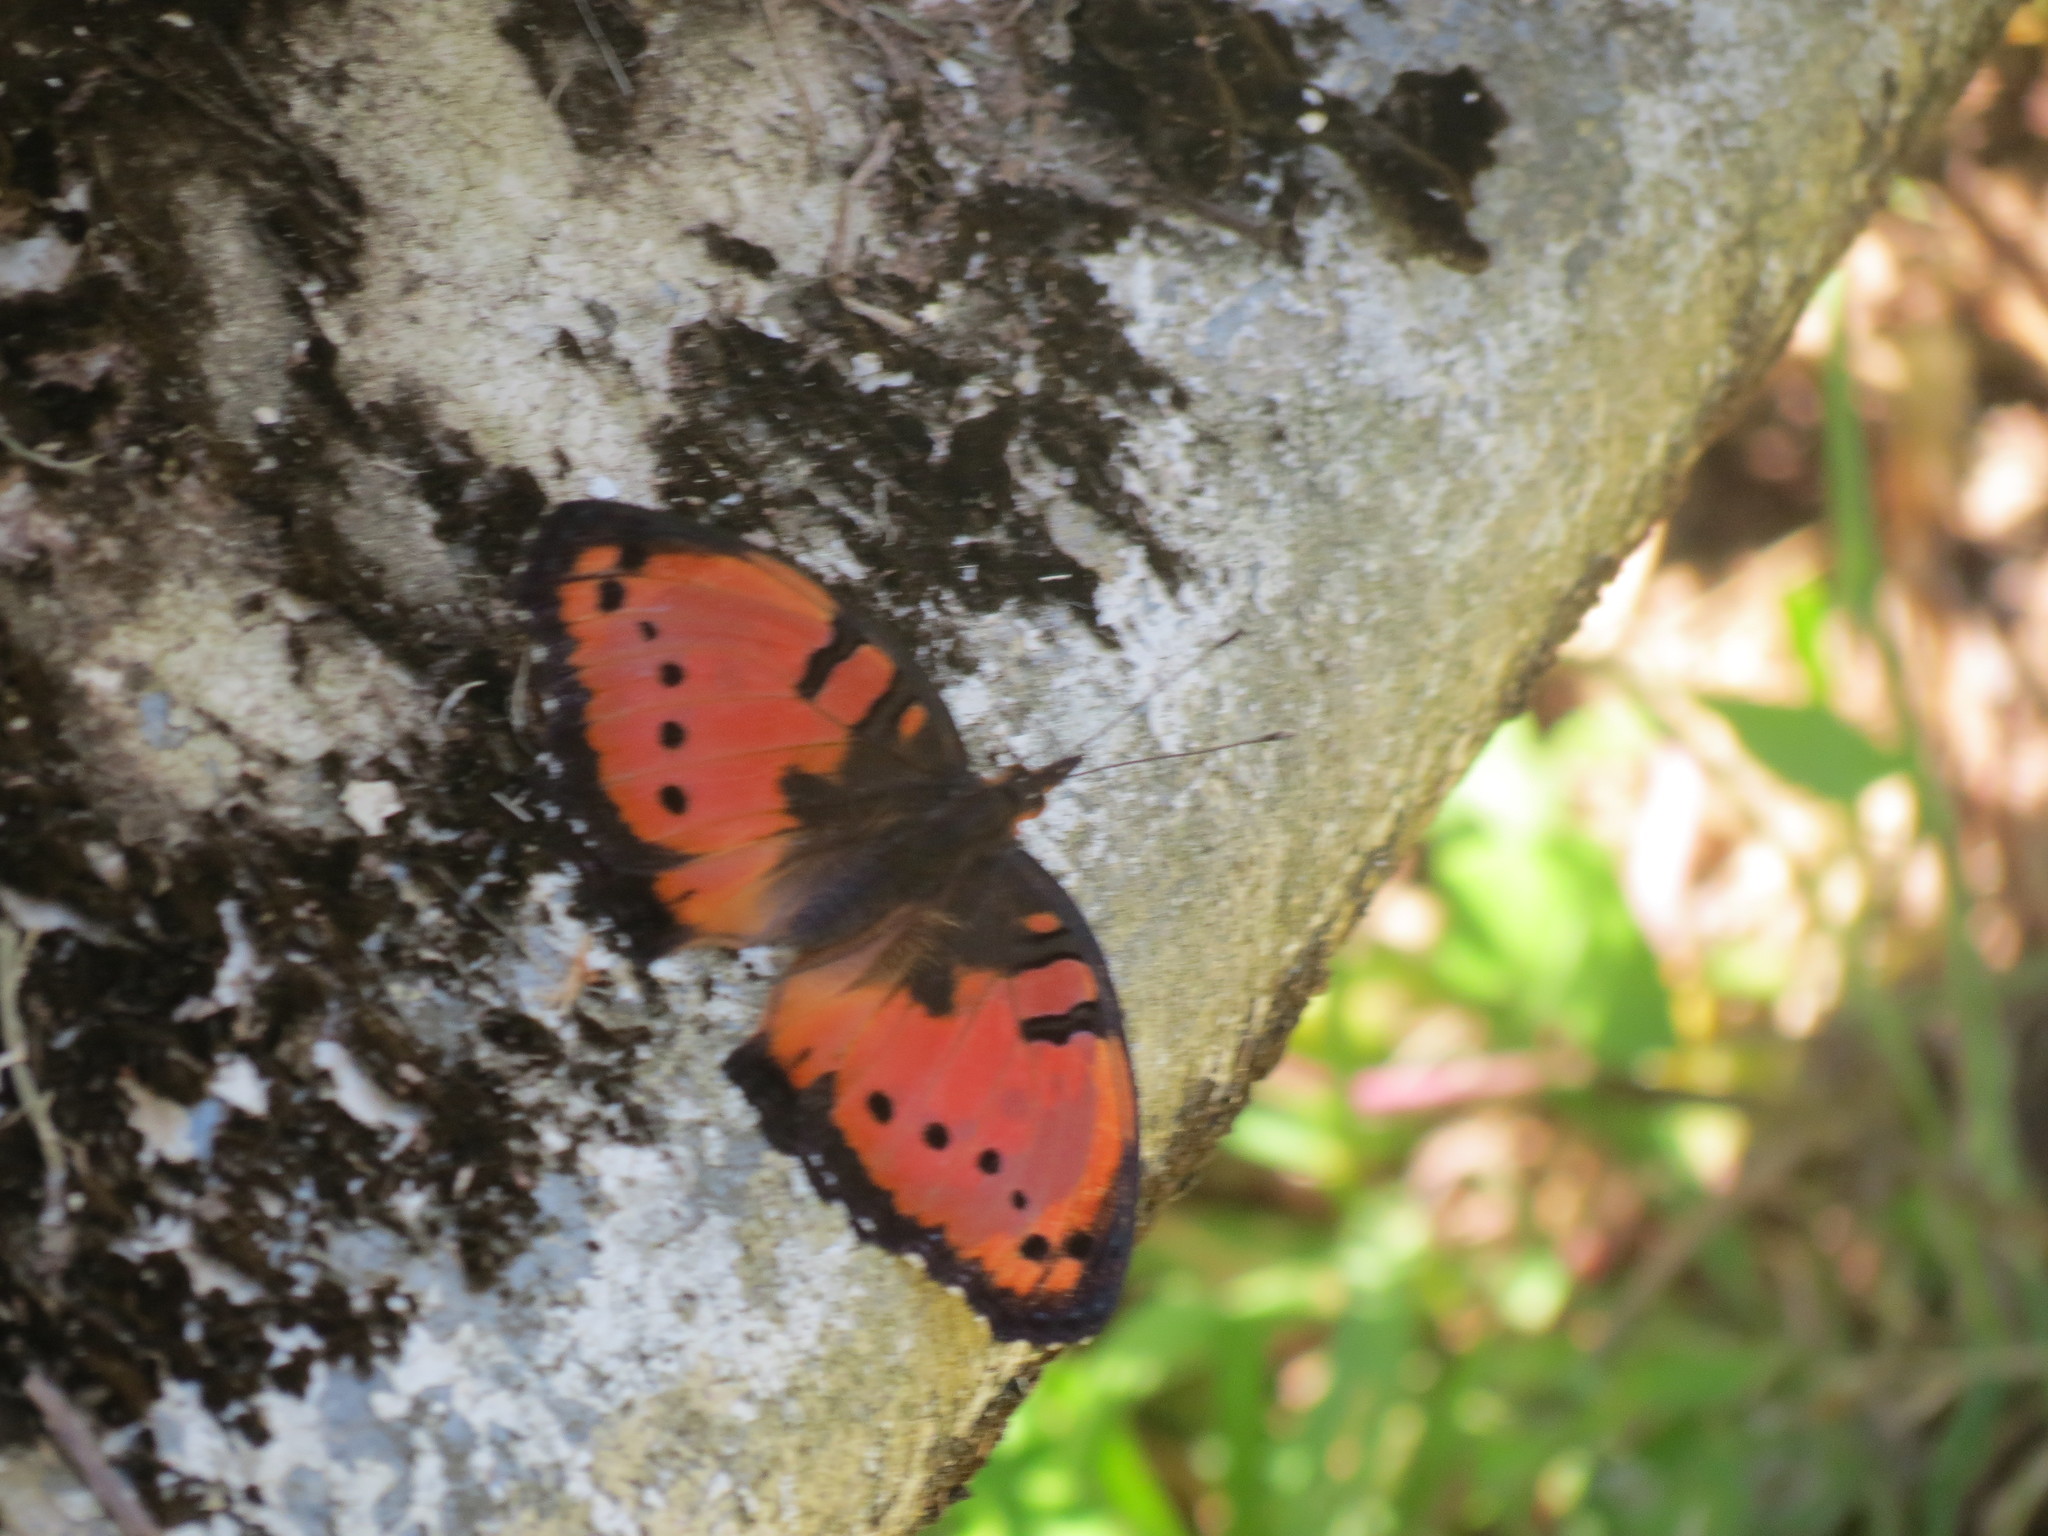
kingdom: Animalia
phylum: Arthropoda
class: Insecta
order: Lepidoptera
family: Nymphalidae
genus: Precis
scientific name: Precis octavia
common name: Gaudy commodore
